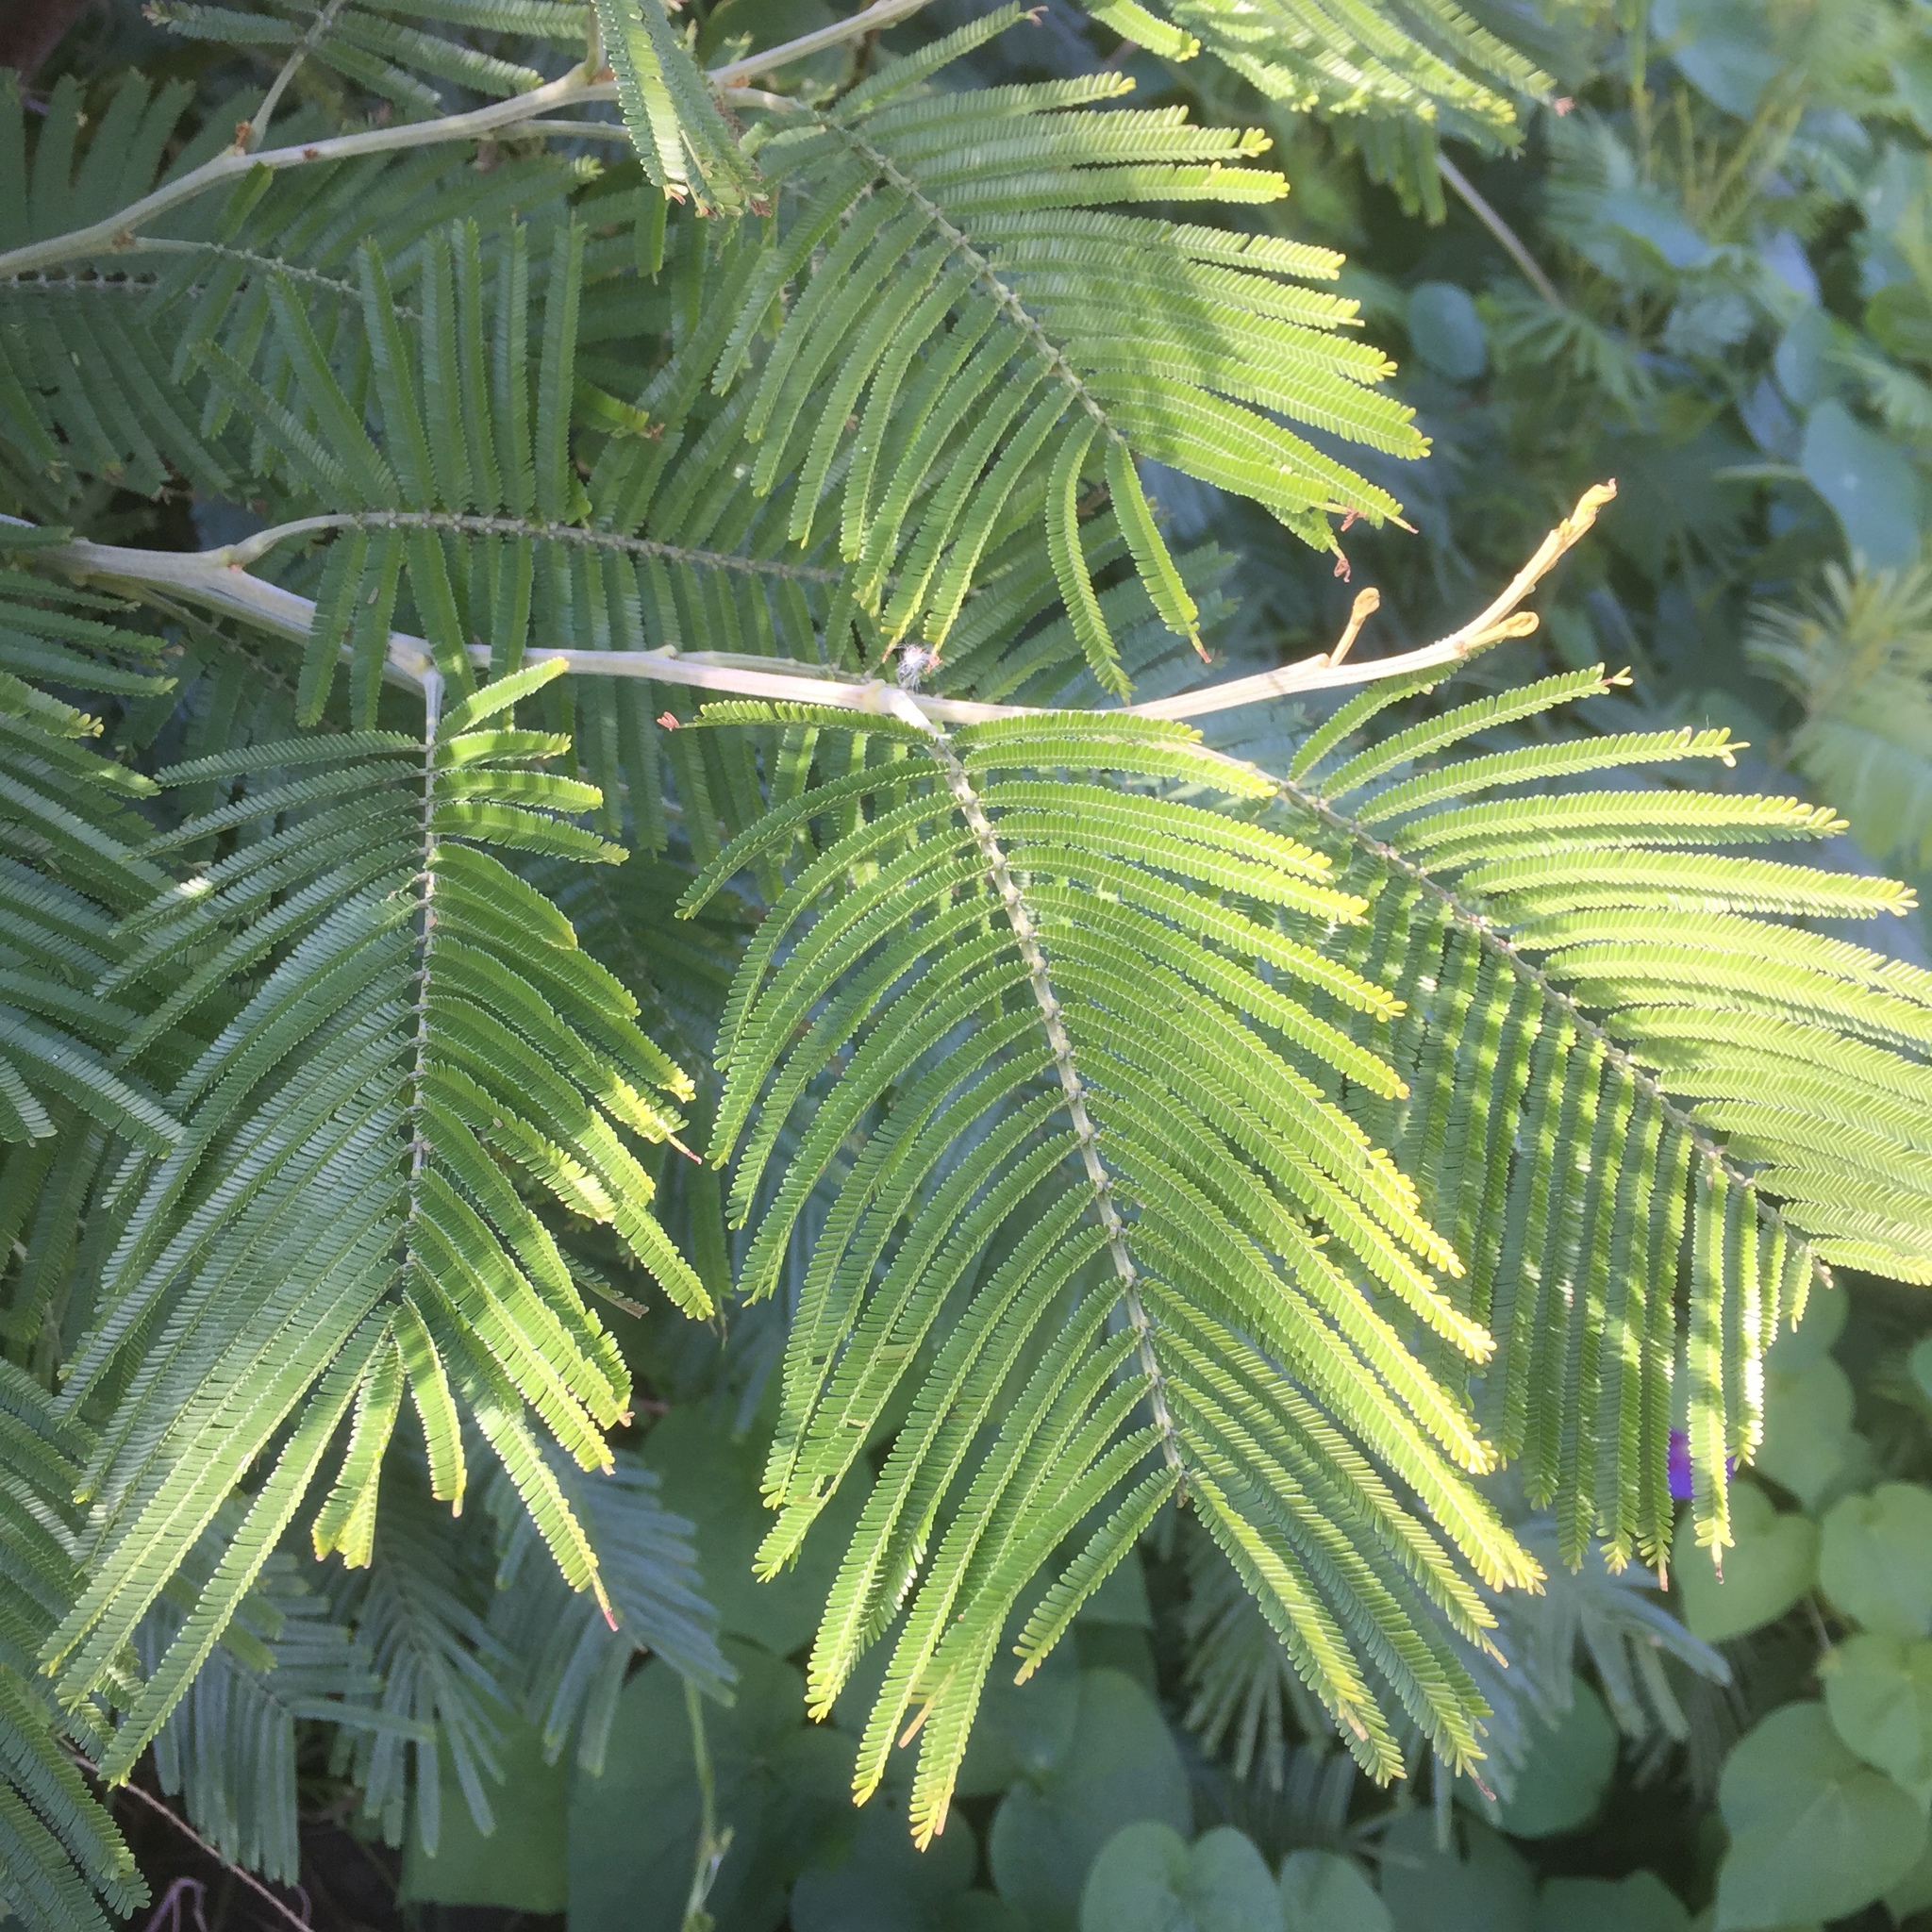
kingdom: Plantae
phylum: Tracheophyta
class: Magnoliopsida
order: Fabales
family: Fabaceae
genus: Acacia
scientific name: Acacia mearnsii
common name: Black wattle
